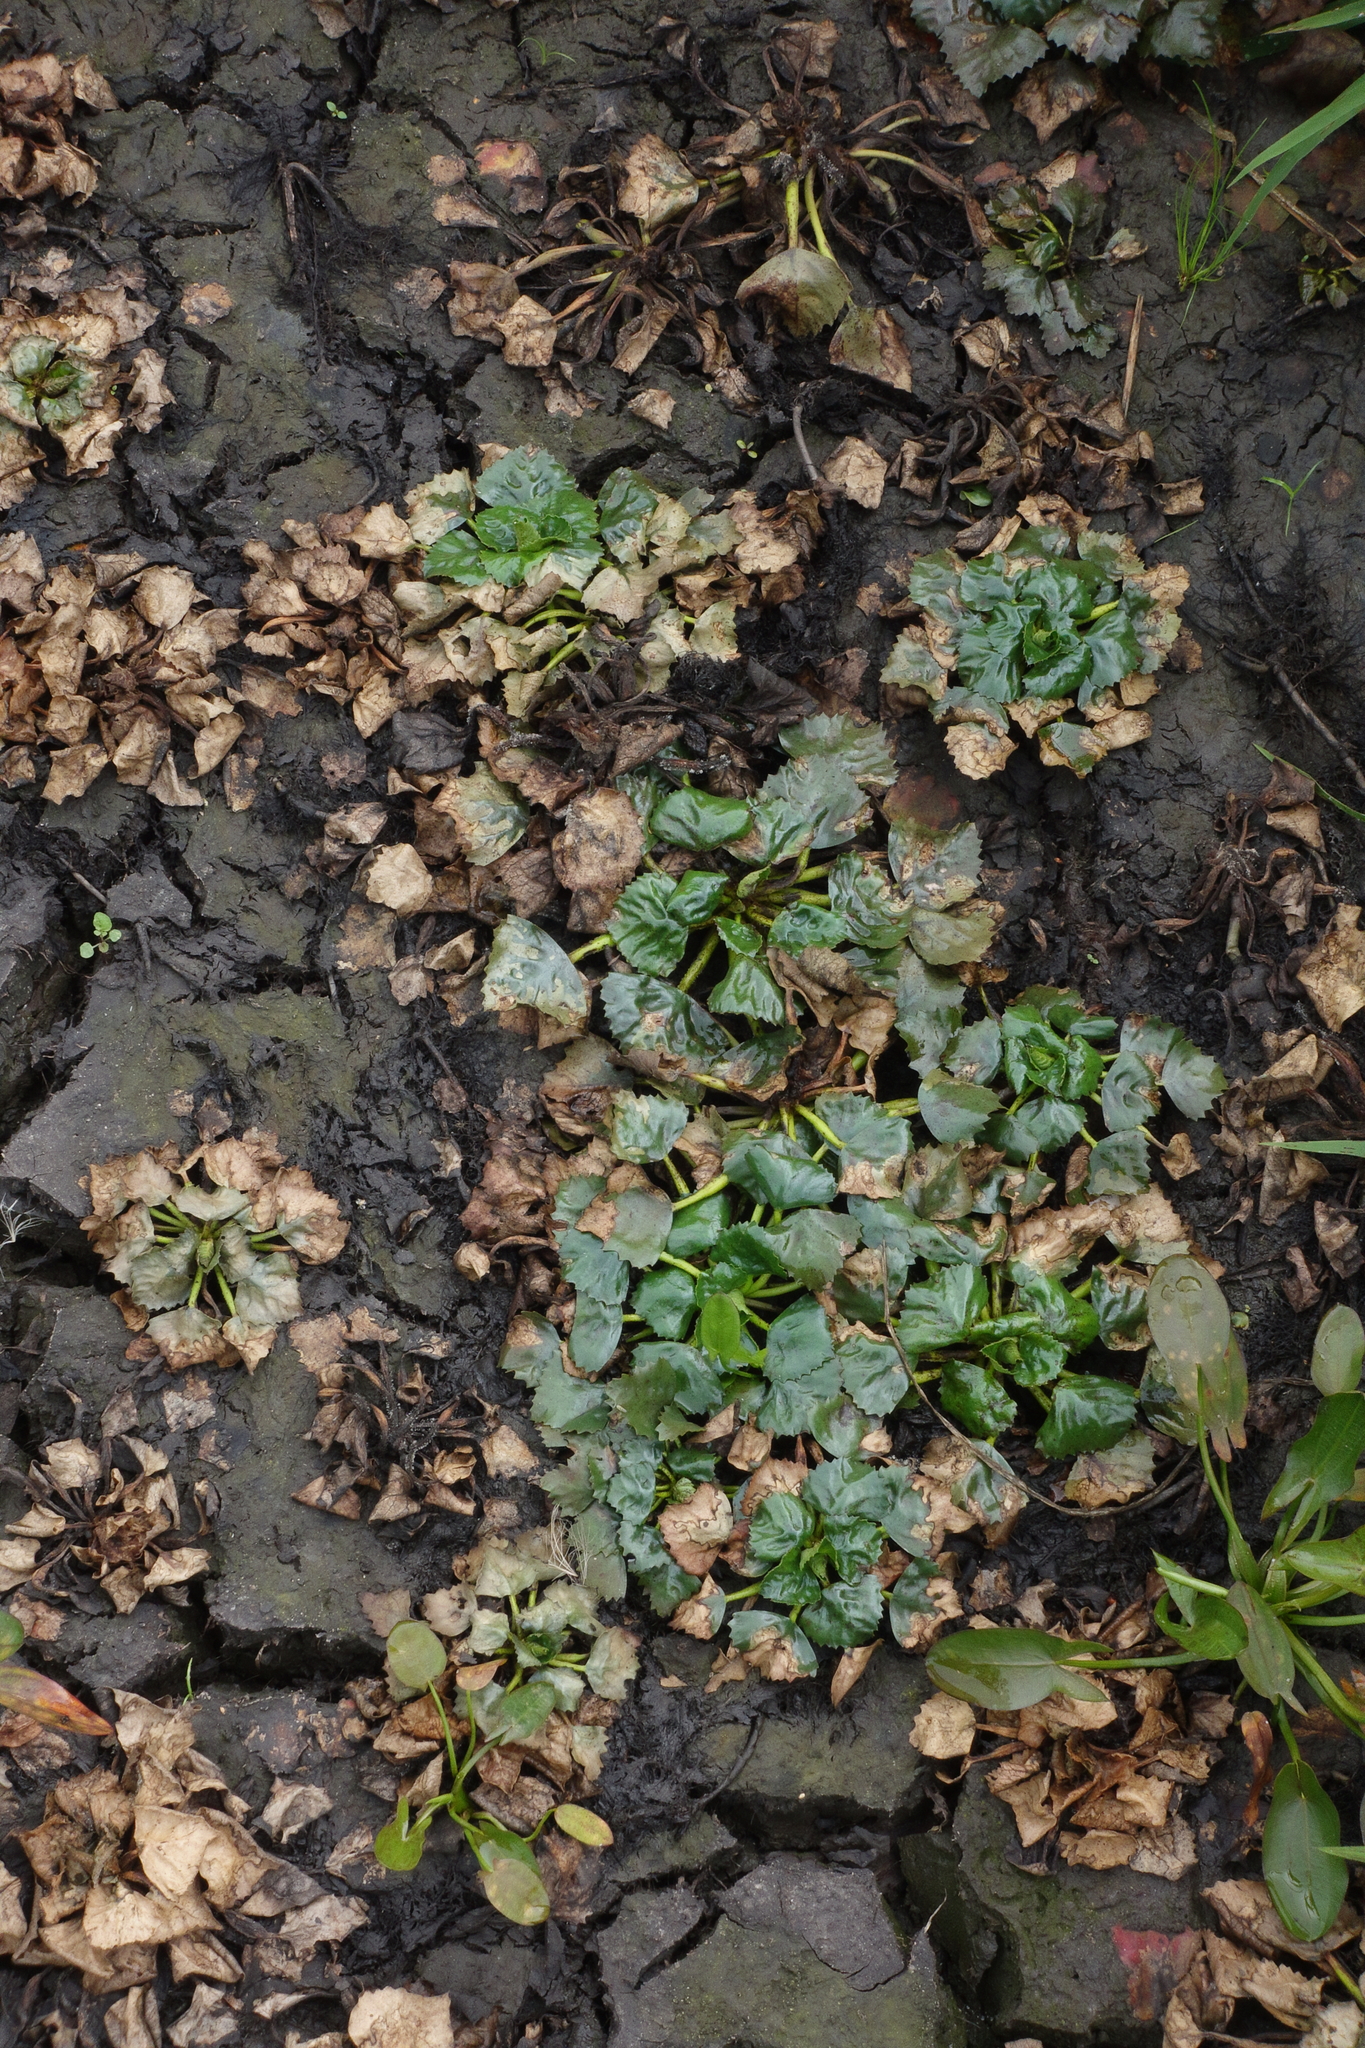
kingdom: Plantae
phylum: Tracheophyta
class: Magnoliopsida
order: Myrtales
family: Lythraceae
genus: Trapa
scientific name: Trapa natans
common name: Water chestnut
